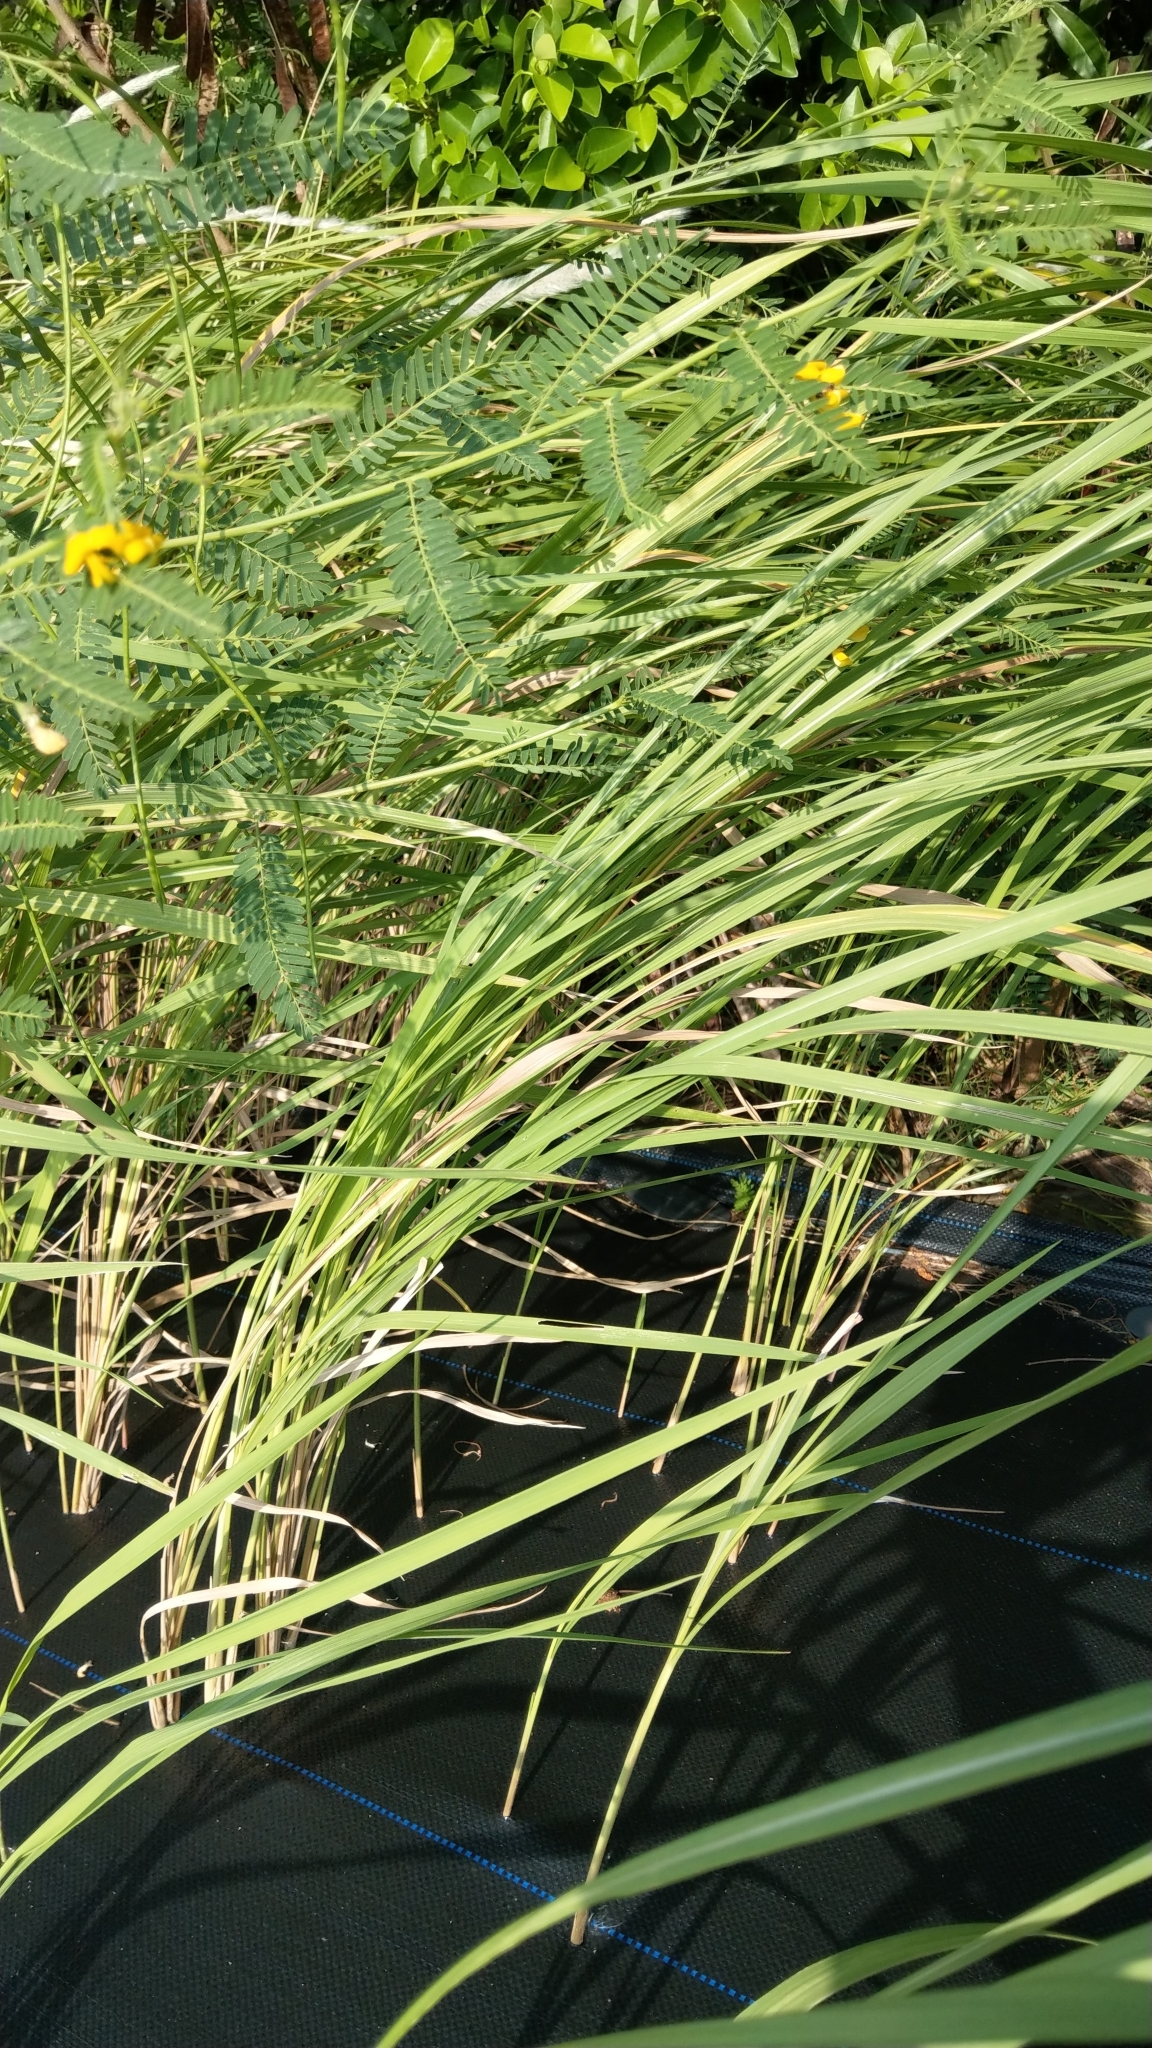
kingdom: Plantae
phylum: Tracheophyta
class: Liliopsida
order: Poales
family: Poaceae
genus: Imperata
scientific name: Imperata cylindrica
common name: Cogongrass
